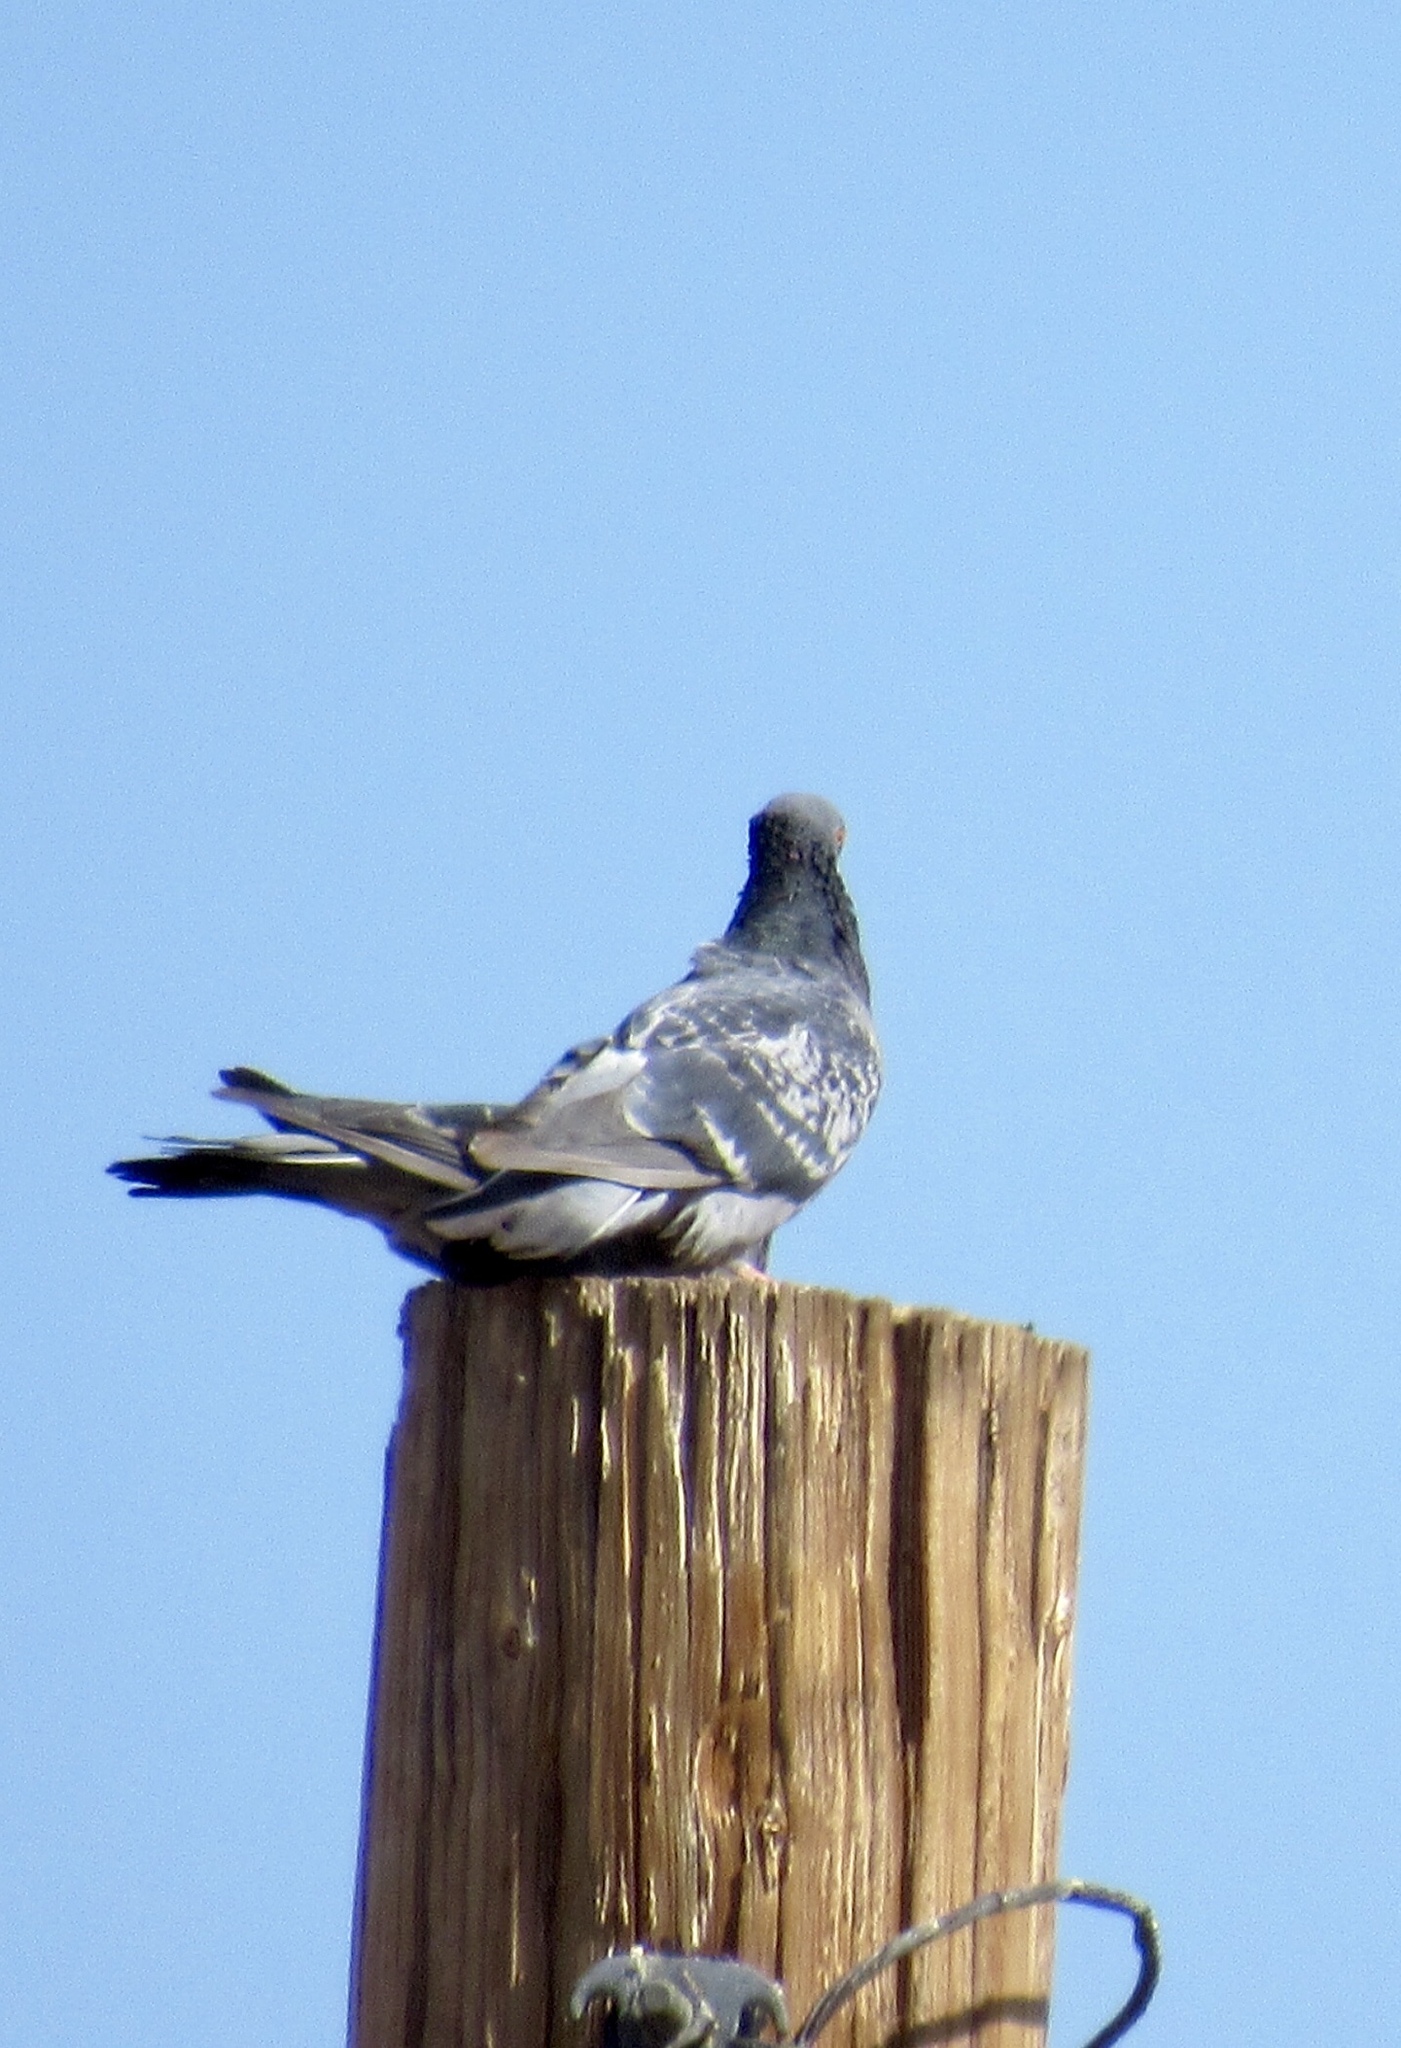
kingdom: Animalia
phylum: Chordata
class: Aves
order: Columbiformes
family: Columbidae
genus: Columba
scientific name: Columba livia
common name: Rock pigeon
